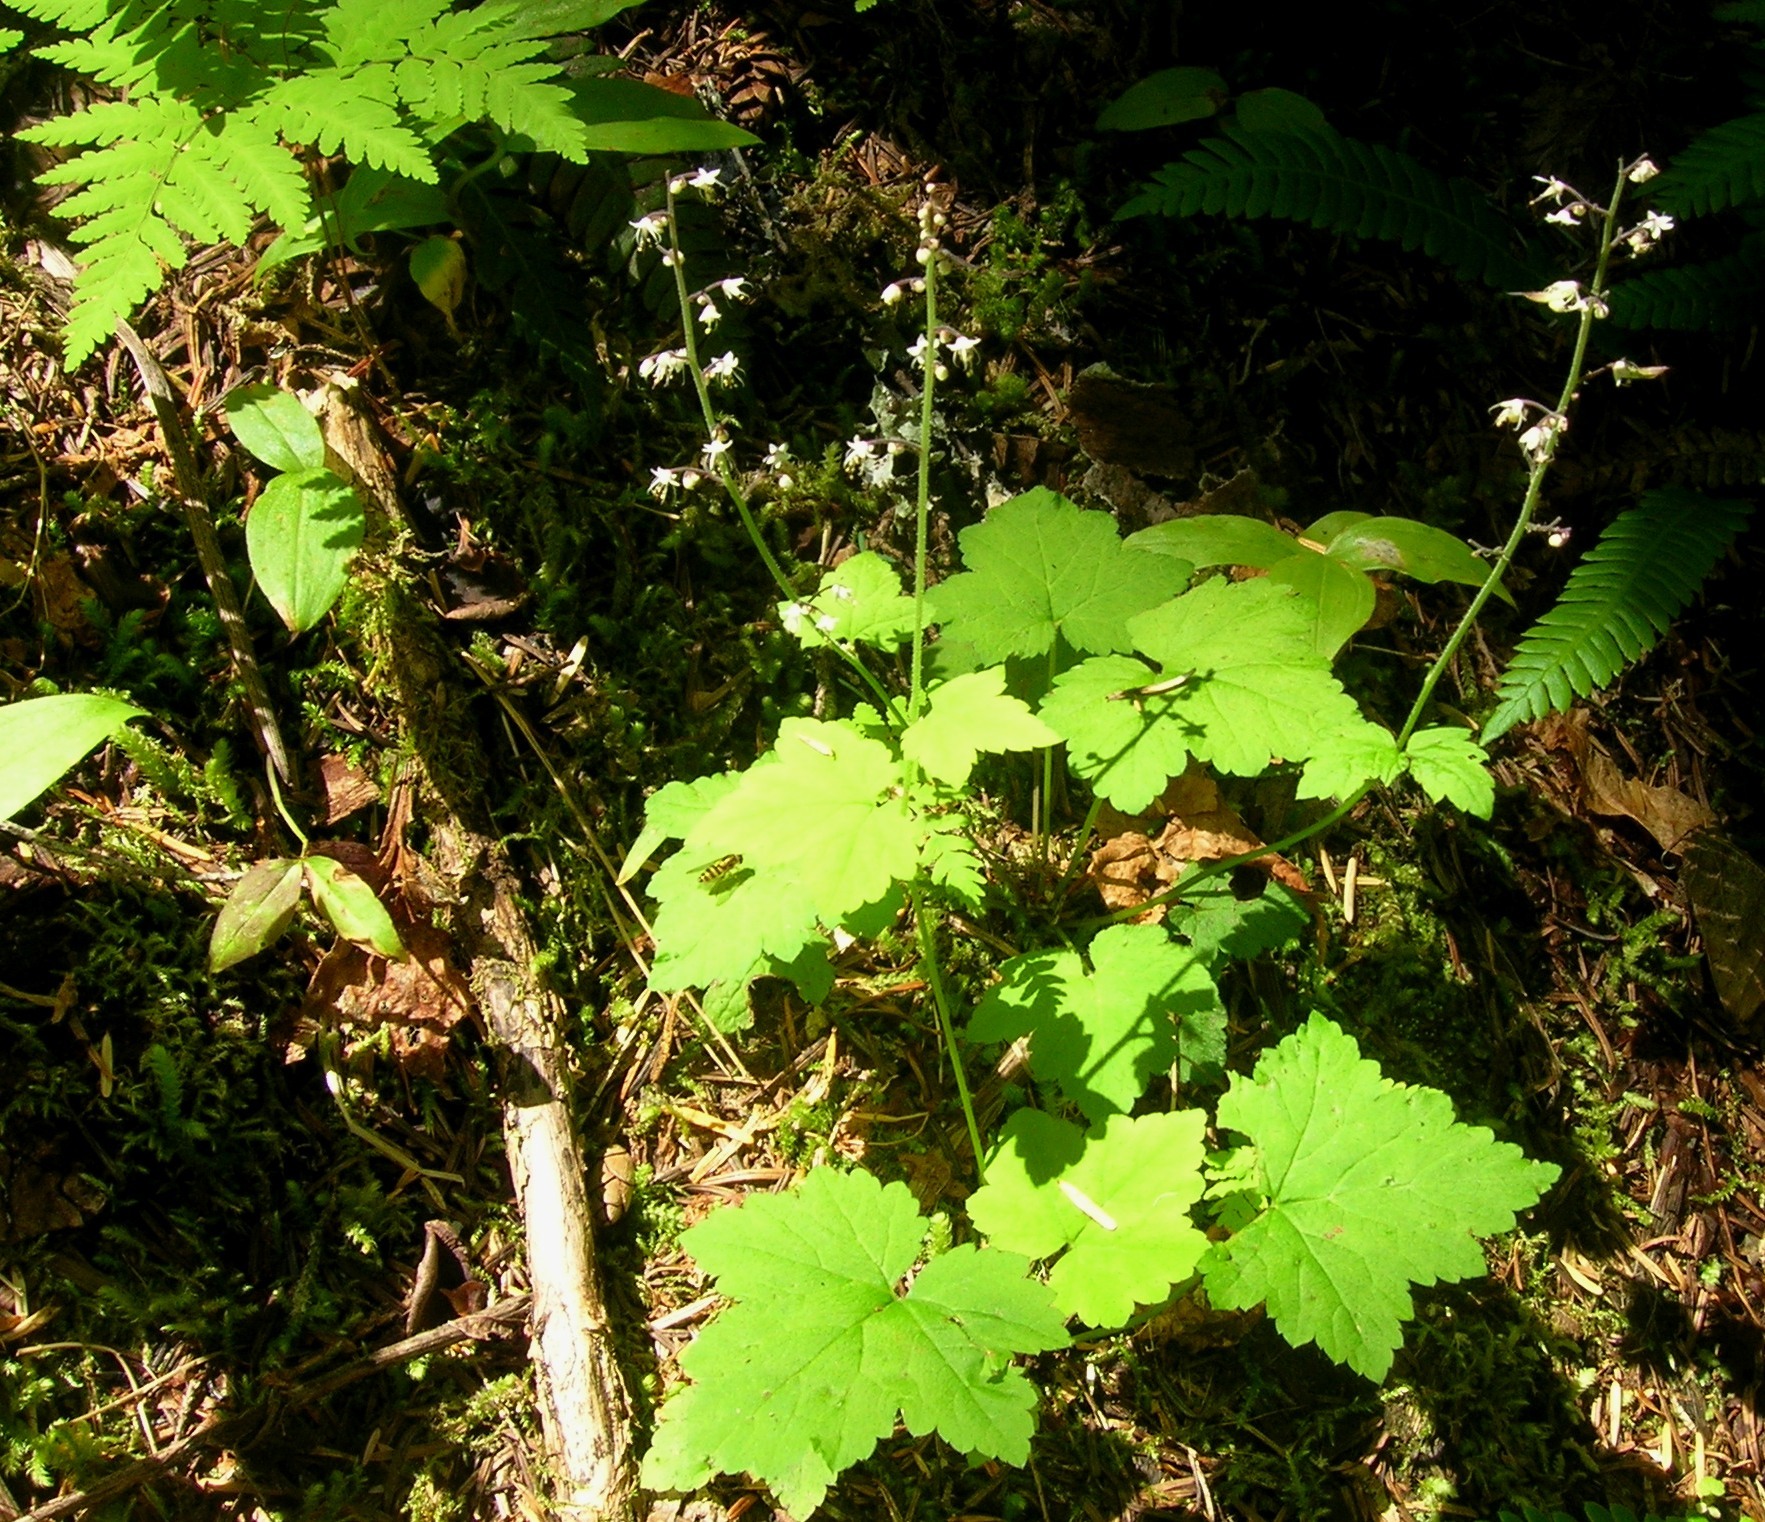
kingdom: Plantae
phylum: Tracheophyta
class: Magnoliopsida
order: Saxifragales
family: Saxifragaceae
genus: Tiarella
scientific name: Tiarella trifoliata
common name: Sugar-scoop
